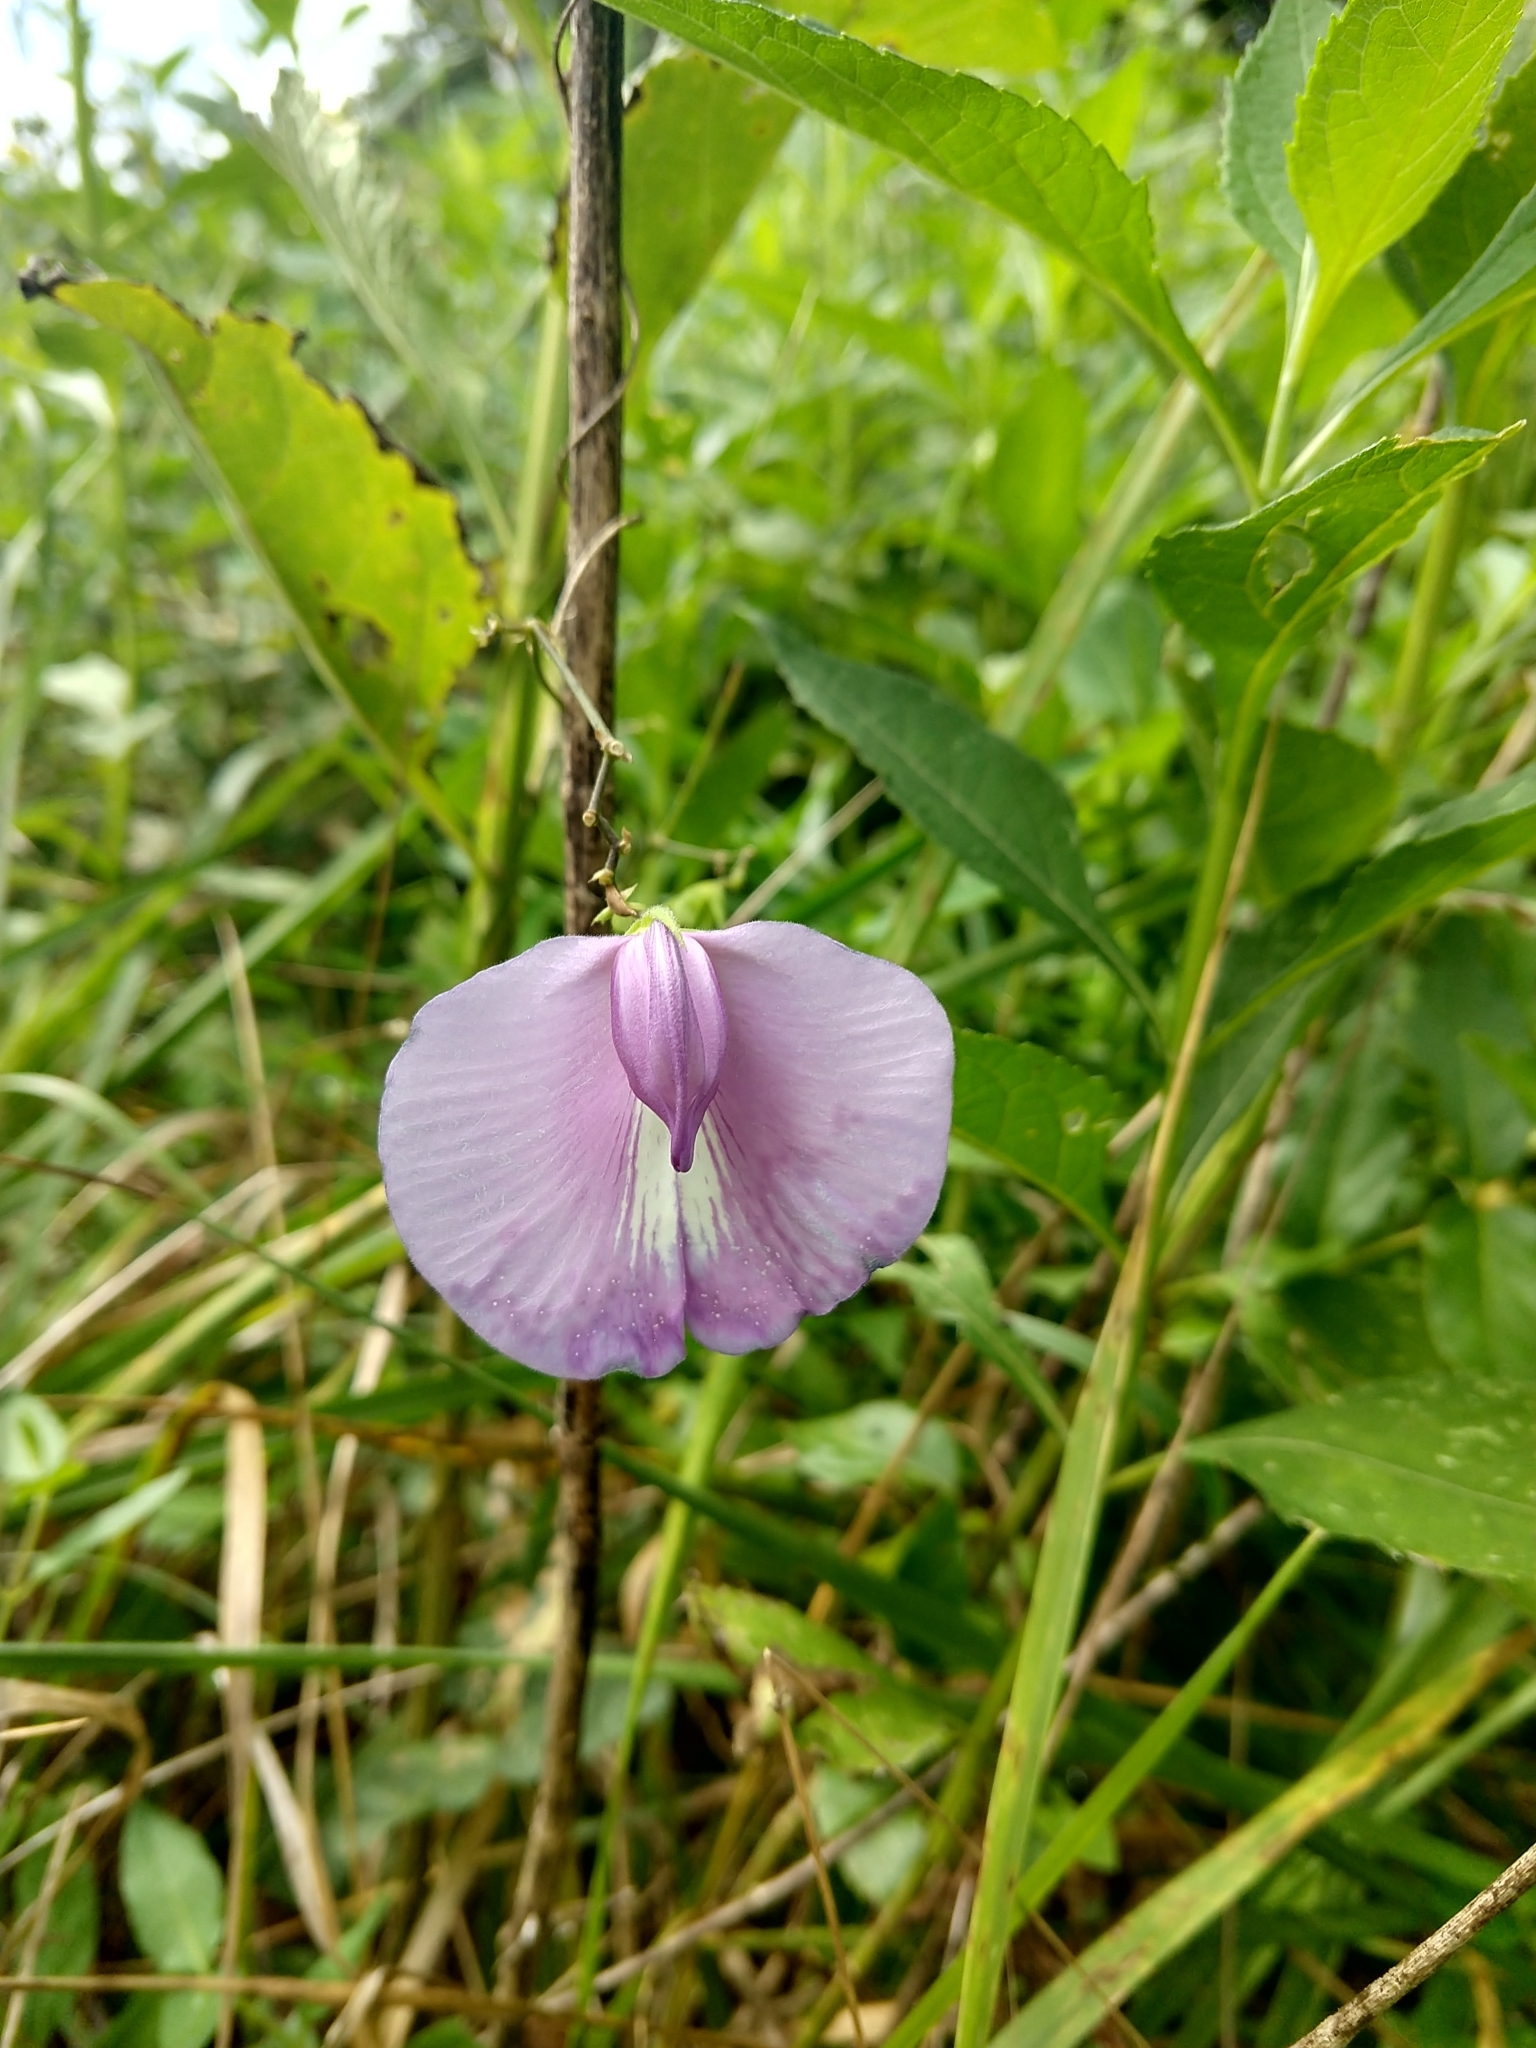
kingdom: Plantae
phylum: Tracheophyta
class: Magnoliopsida
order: Fabales
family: Fabaceae
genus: Centrosema
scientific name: Centrosema virginianum
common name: Butterfly-pea
